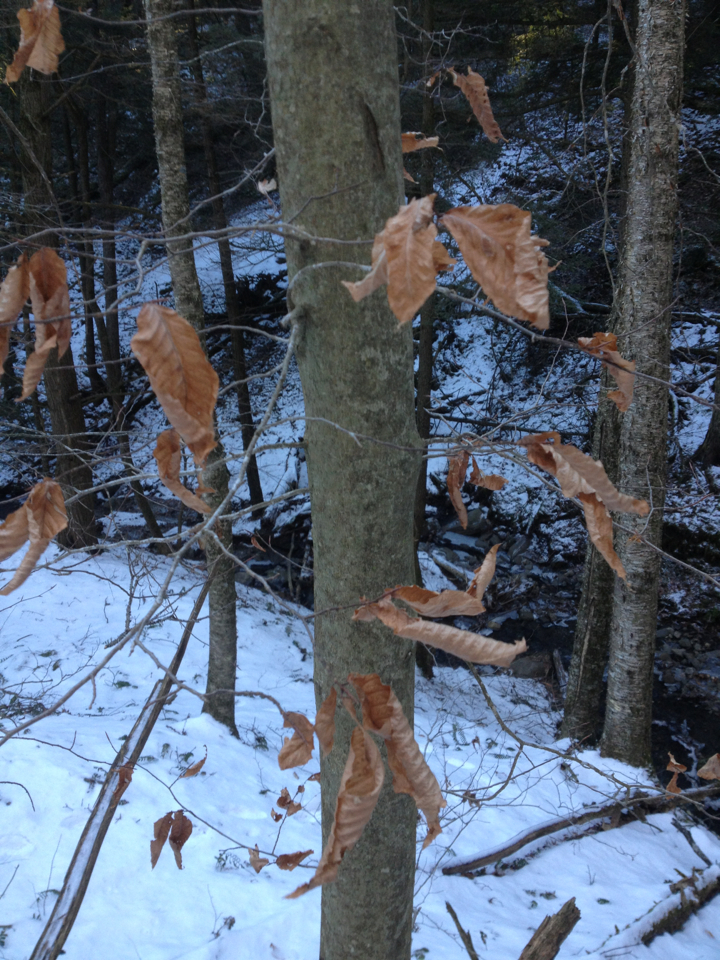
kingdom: Plantae
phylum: Tracheophyta
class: Magnoliopsida
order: Fagales
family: Fagaceae
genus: Fagus
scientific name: Fagus grandifolia
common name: American beech
